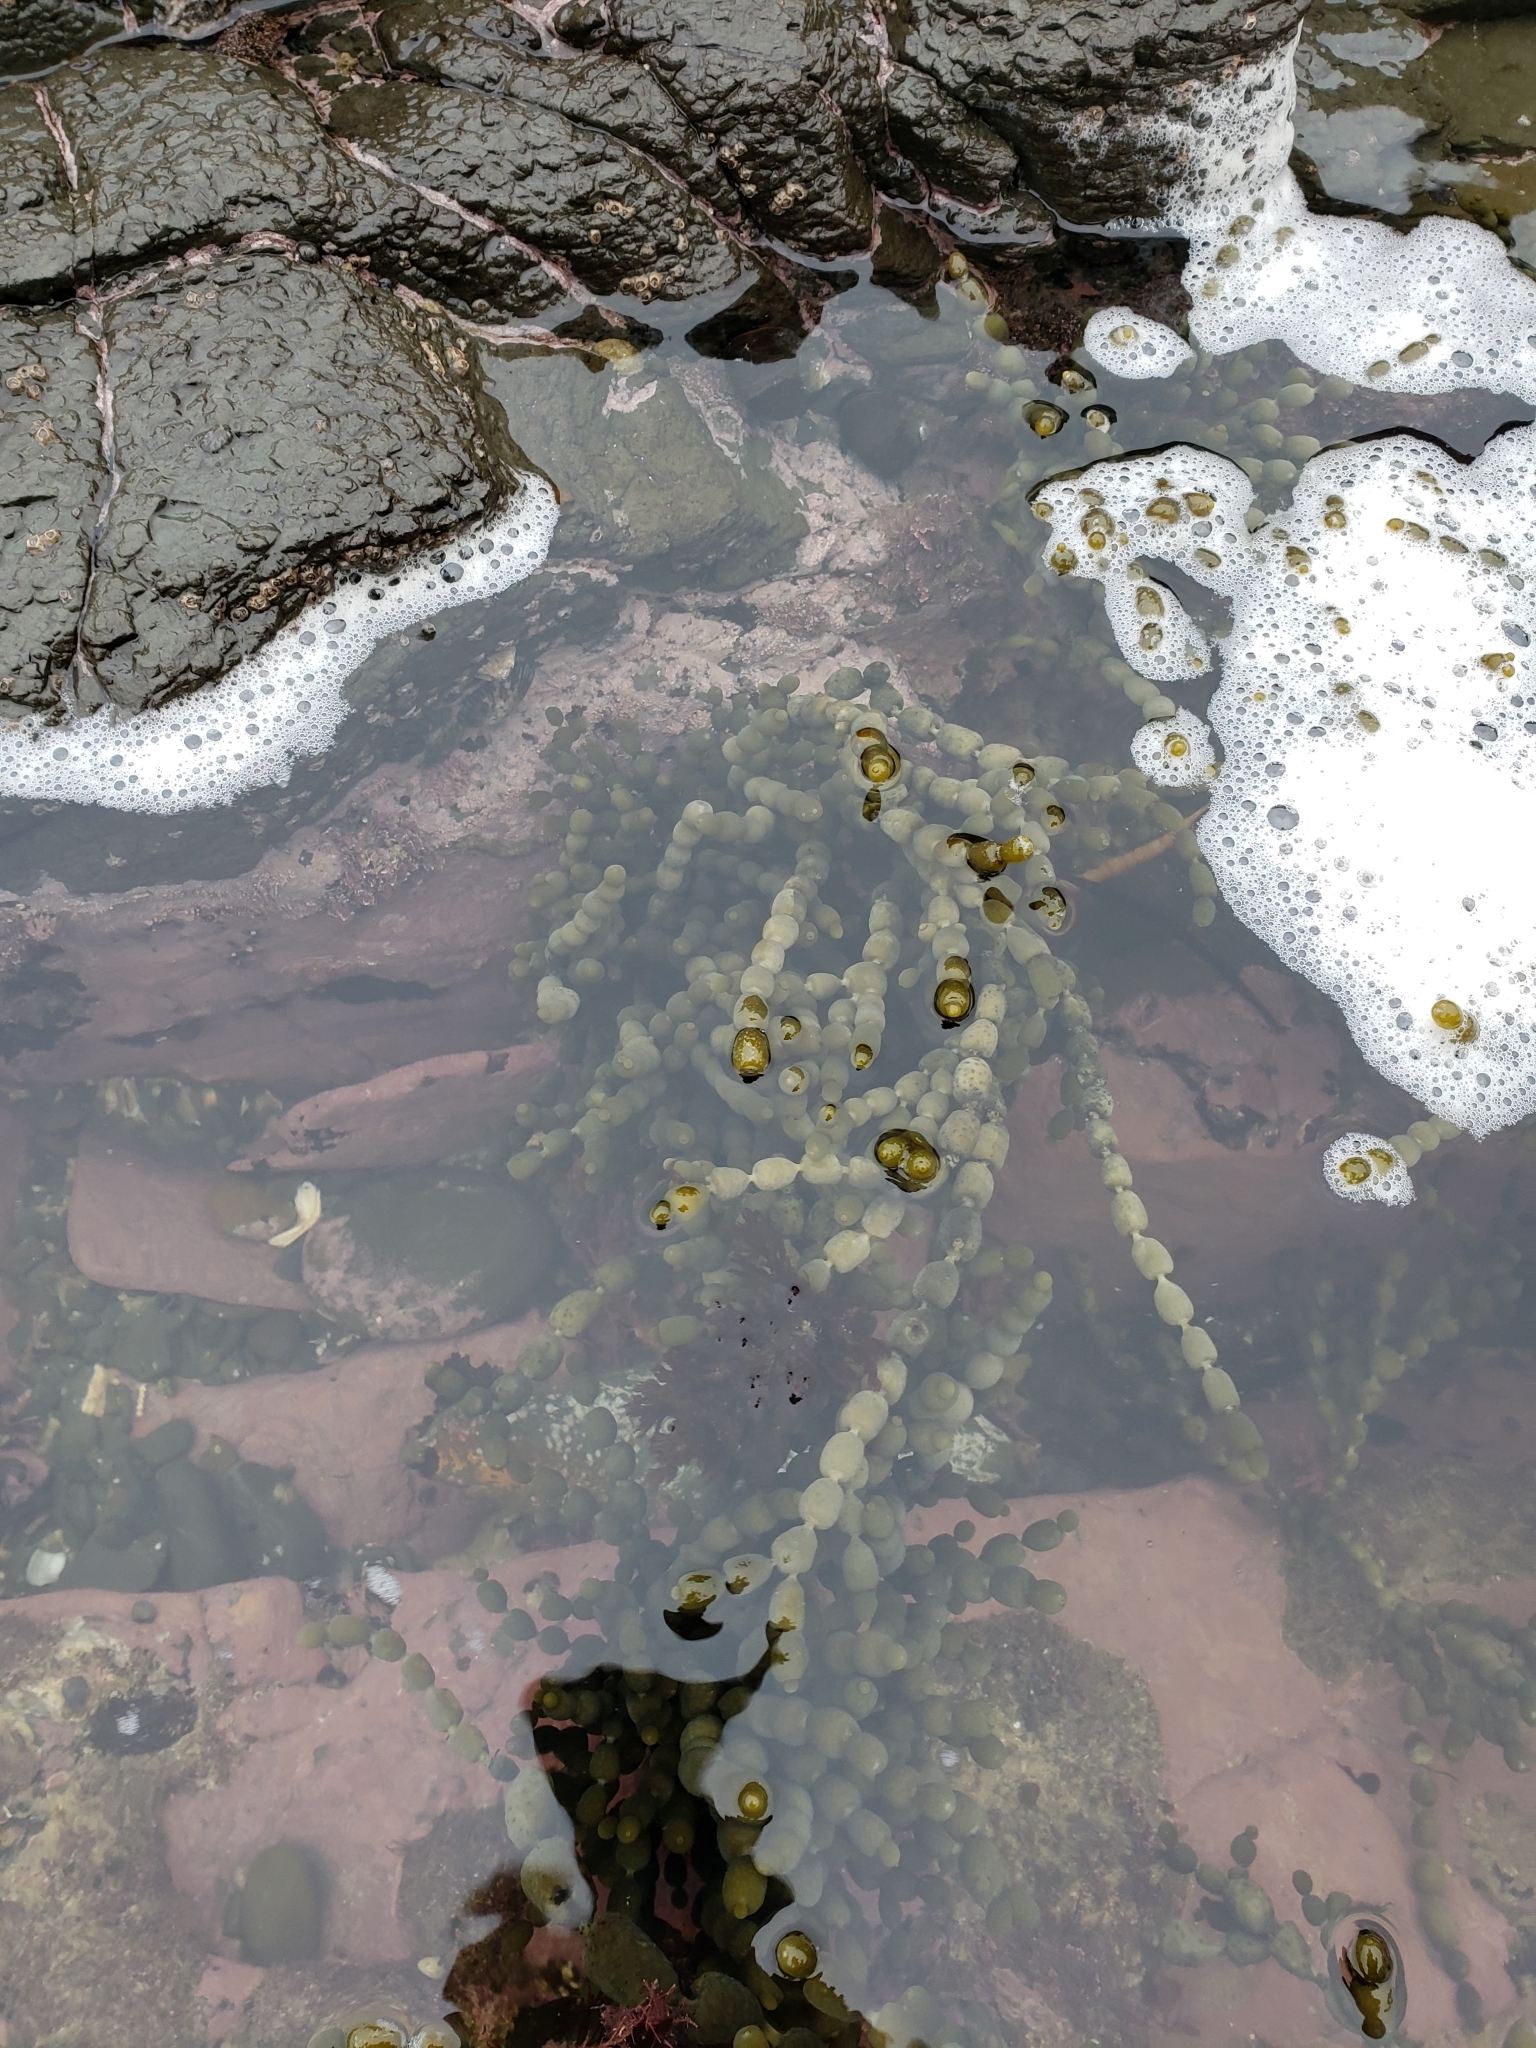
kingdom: Chromista
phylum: Ochrophyta
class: Phaeophyceae
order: Fucales
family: Hormosiraceae
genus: Hormosira
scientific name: Hormosira banksii
